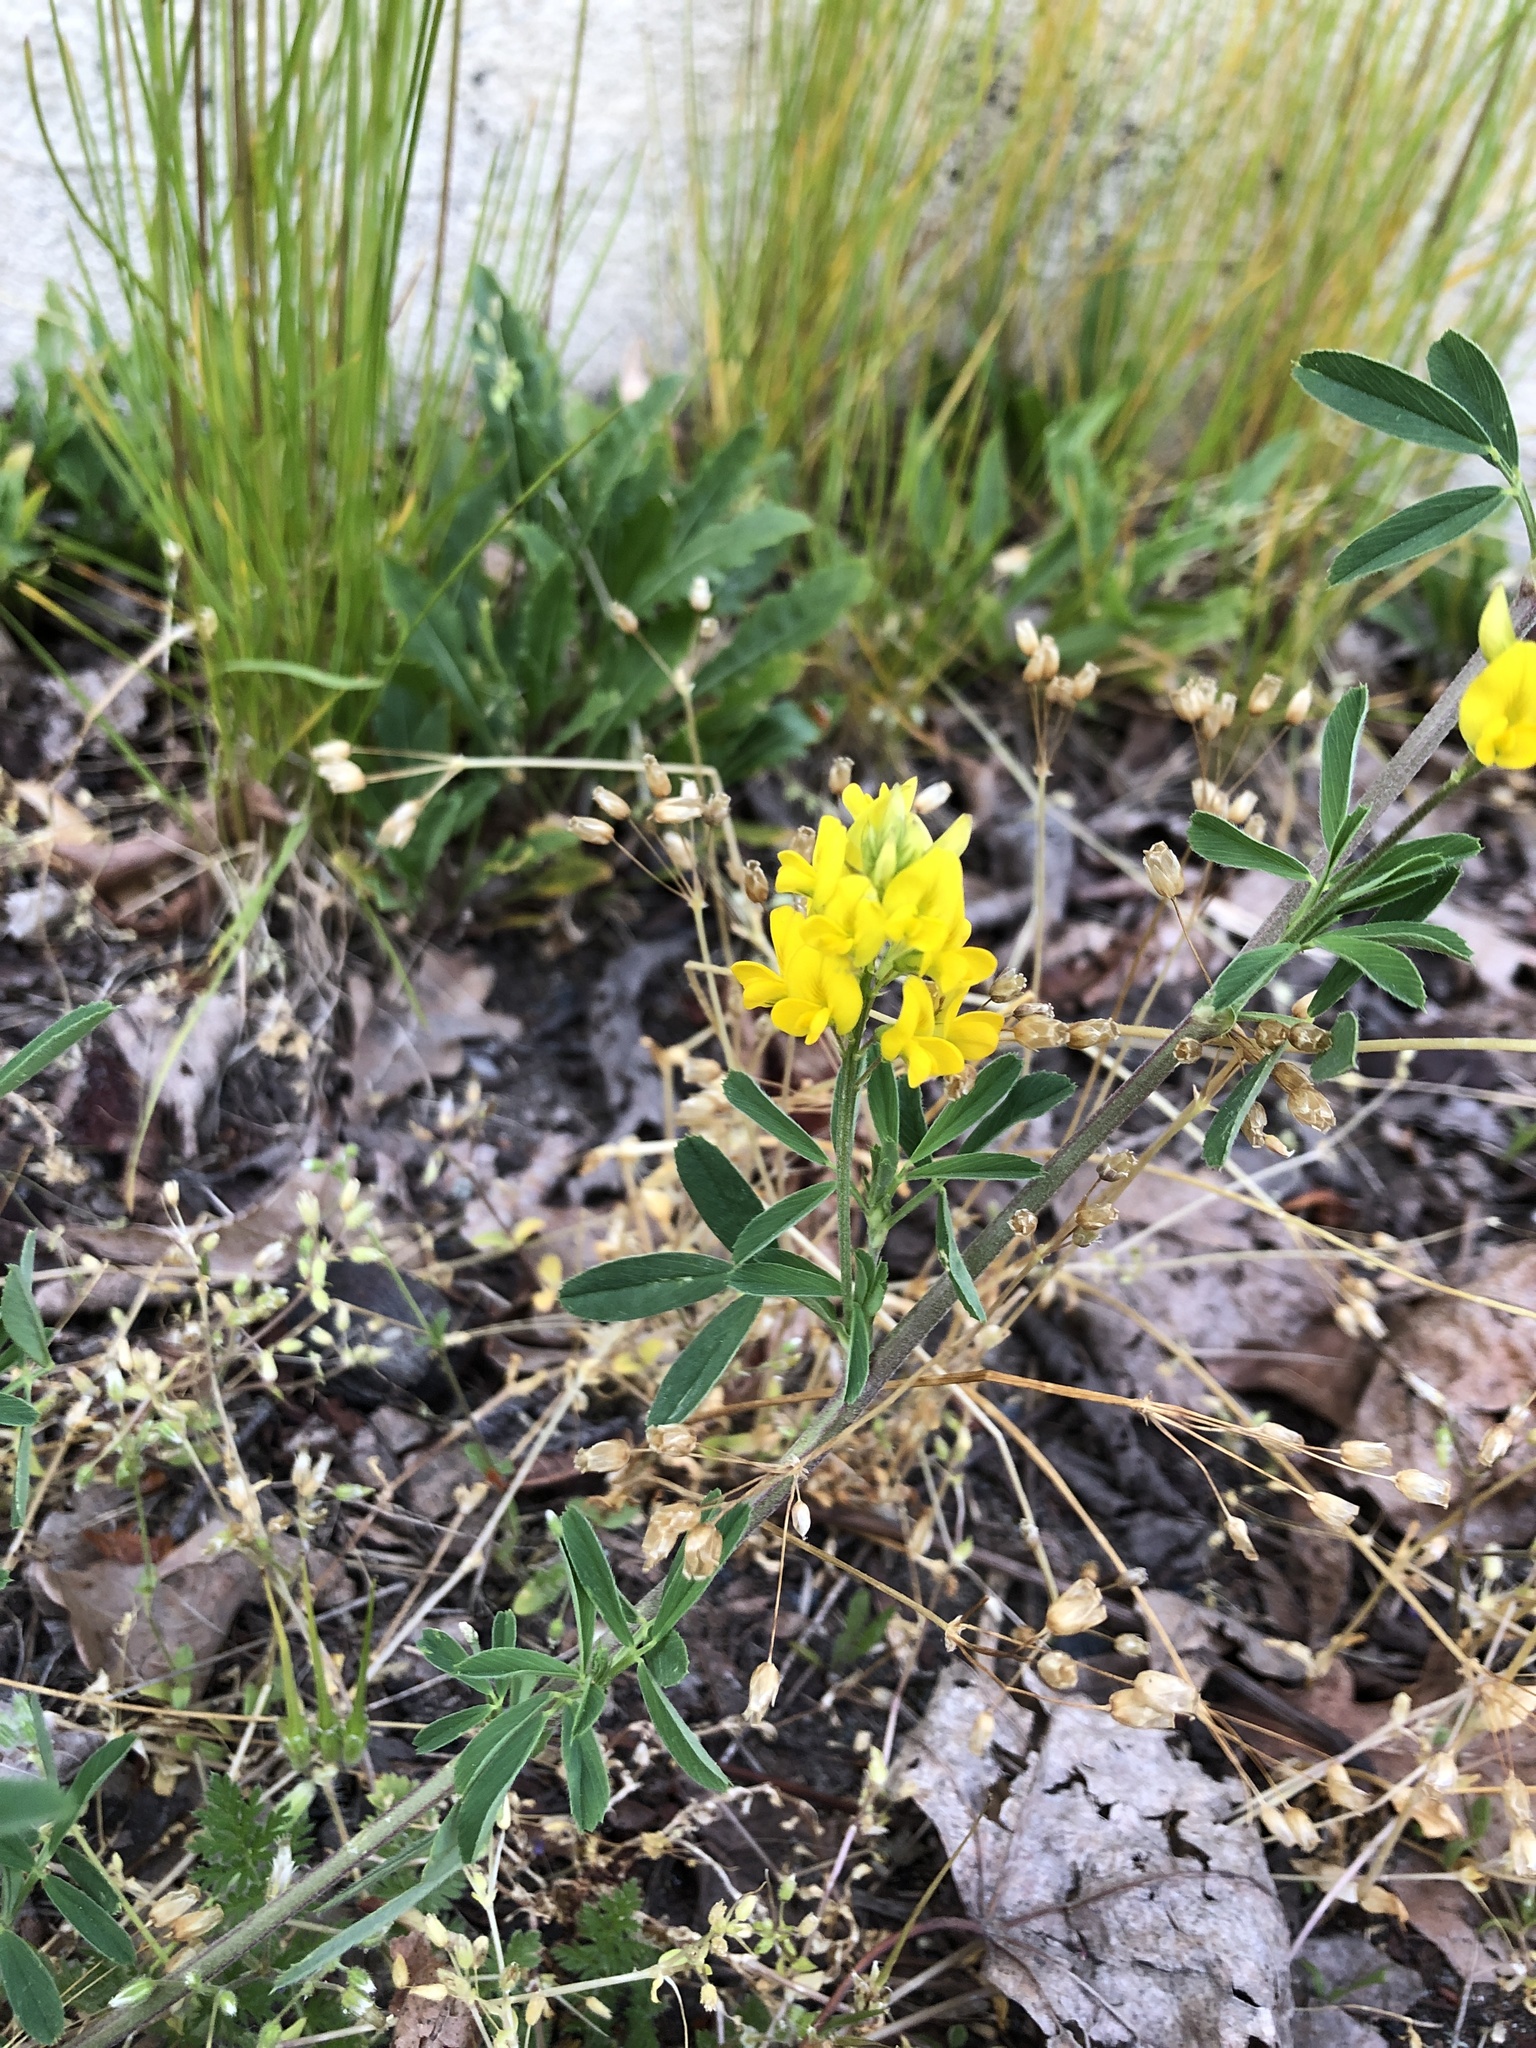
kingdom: Plantae
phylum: Tracheophyta
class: Magnoliopsida
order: Fabales
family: Fabaceae
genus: Medicago
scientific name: Medicago falcata
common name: Sickle medick
